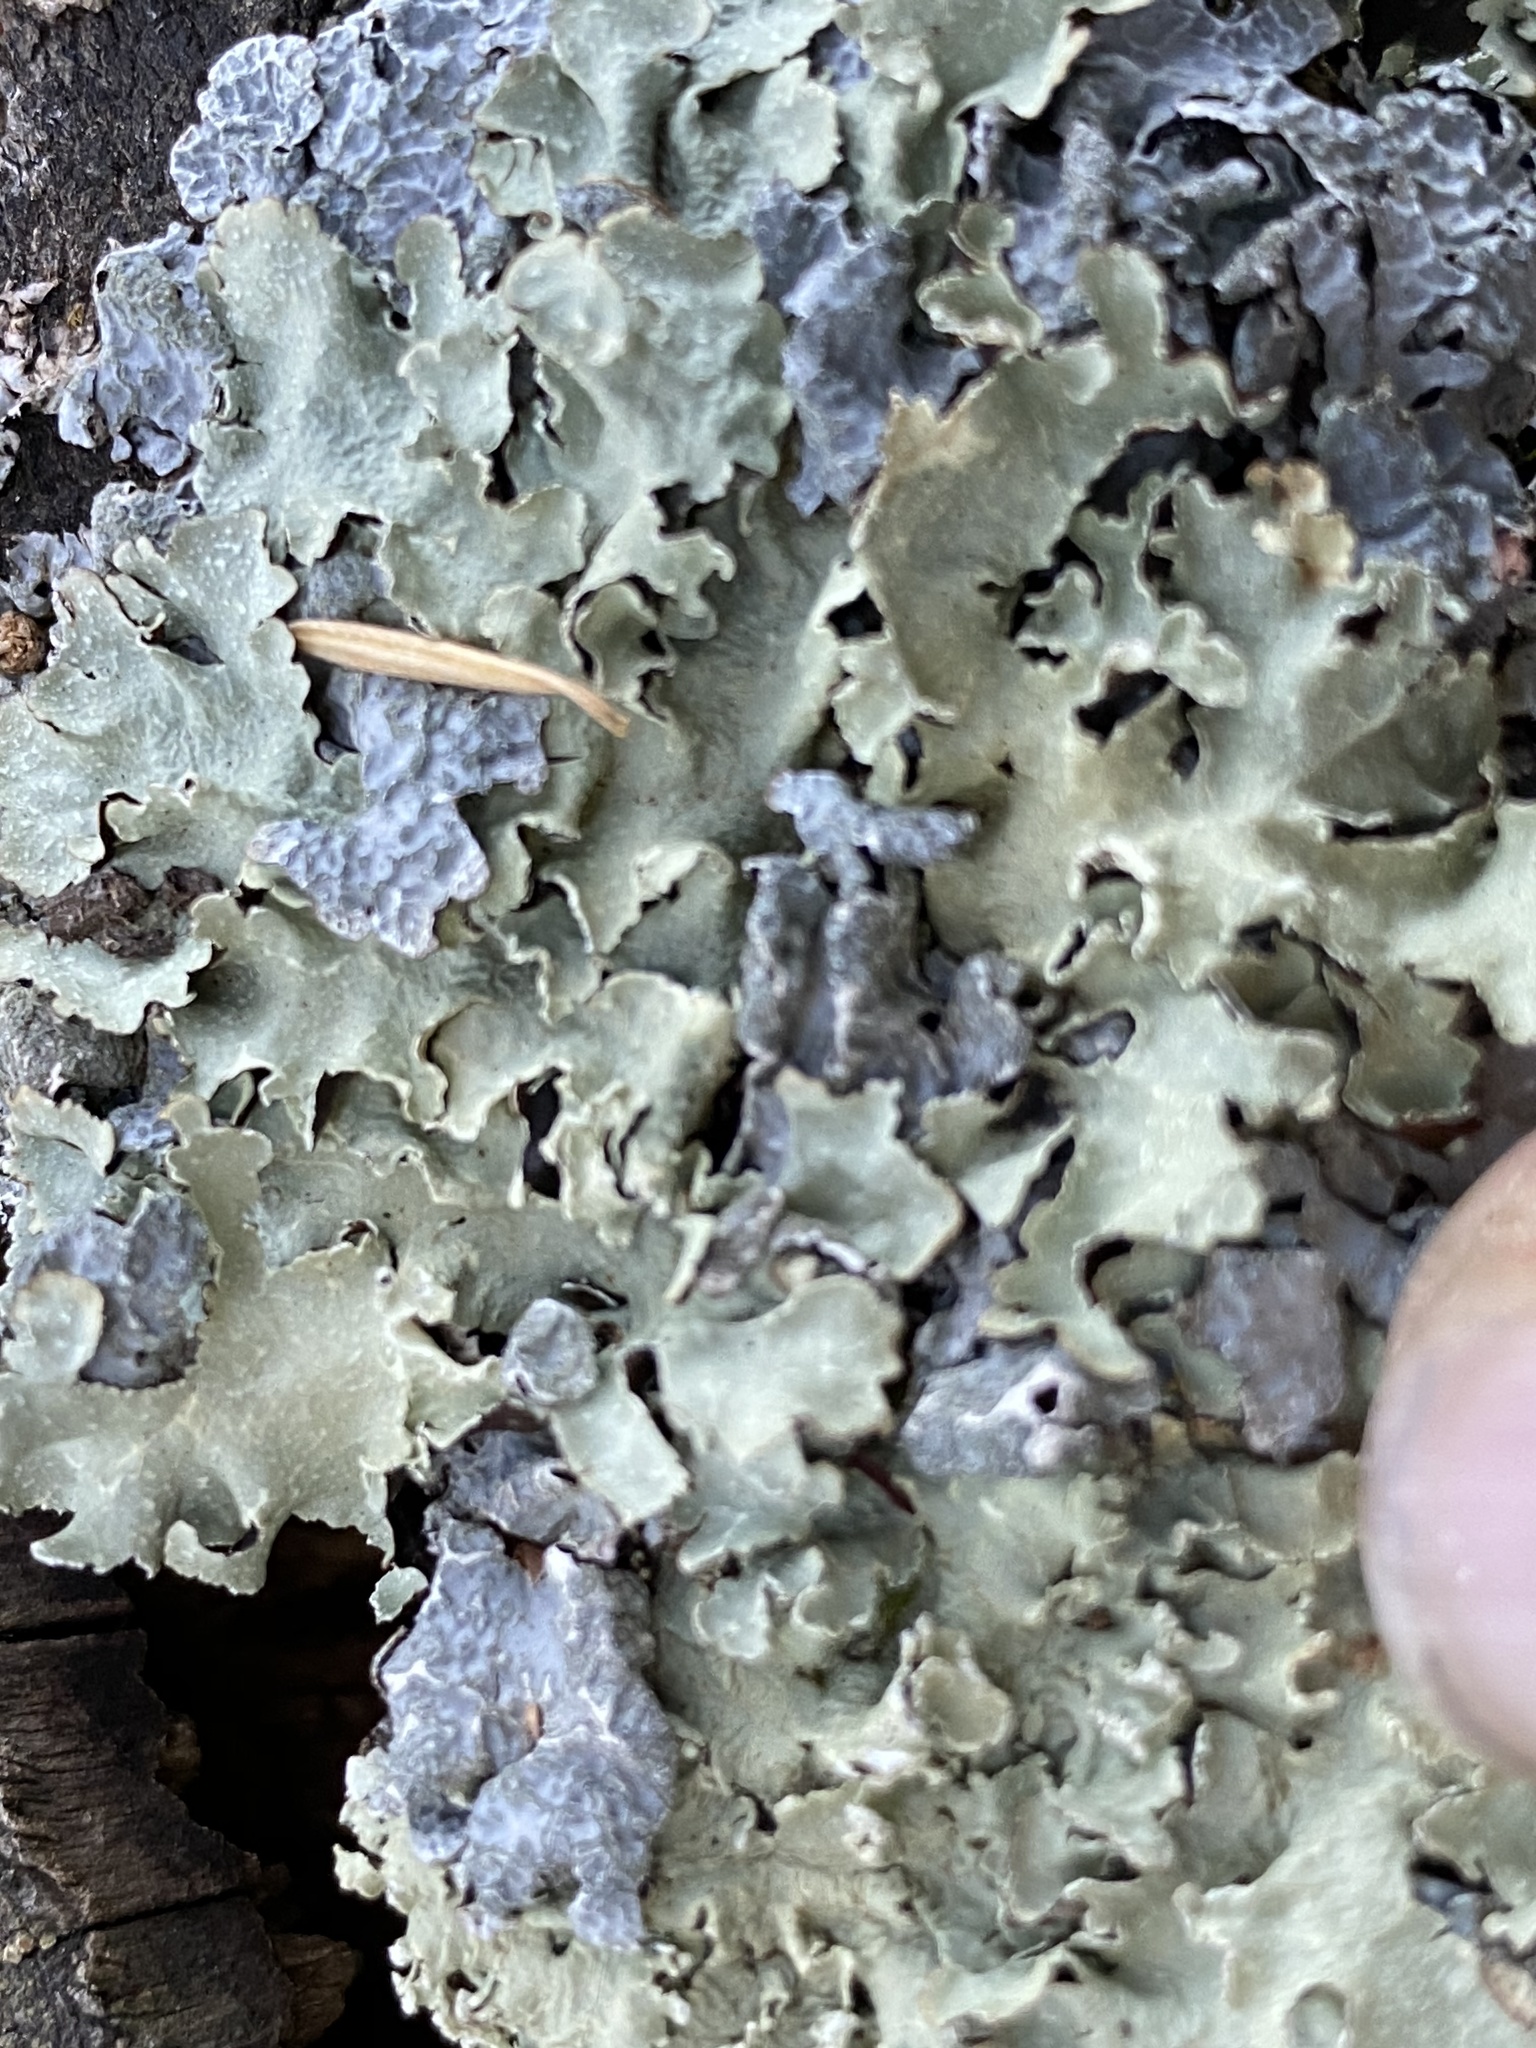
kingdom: Fungi
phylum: Ascomycota
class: Lecanoromycetes
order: Lecanorales
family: Parmeliaceae
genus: Flavopunctelia
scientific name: Flavopunctelia soredica
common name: Powder-edged speckled greenshield
